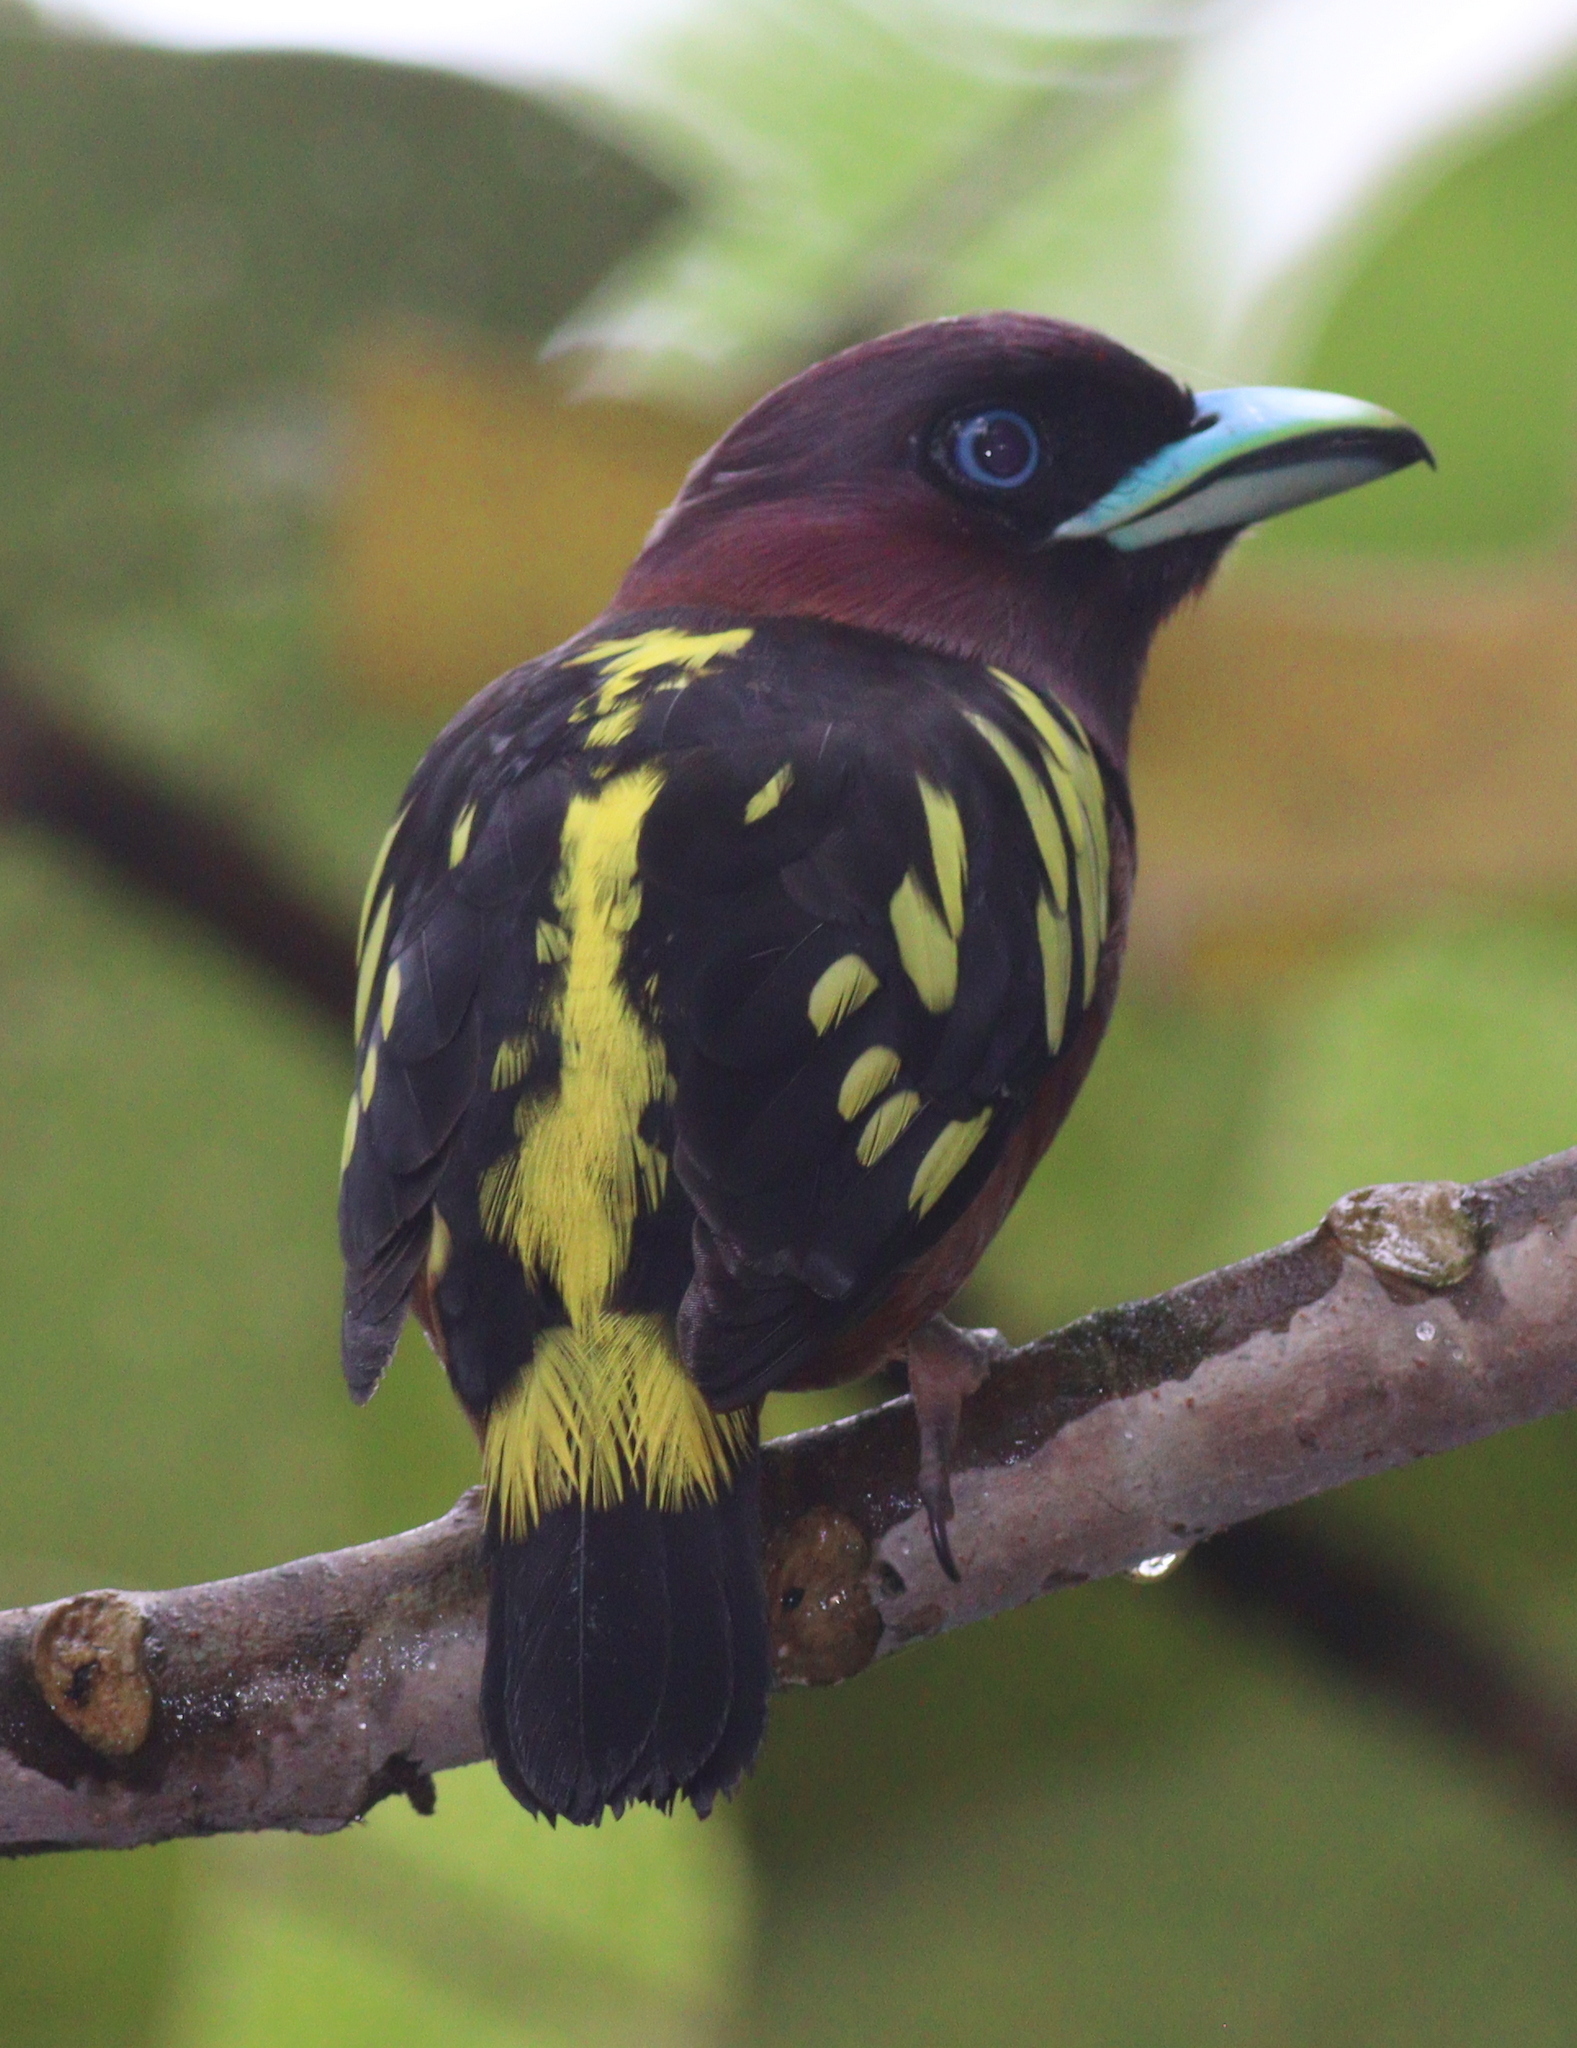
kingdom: Animalia
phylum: Chordata
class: Aves
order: Passeriformes
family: Eurylaimidae
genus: Eurylaimus
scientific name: Eurylaimus javanicus
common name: Banded broadbill
